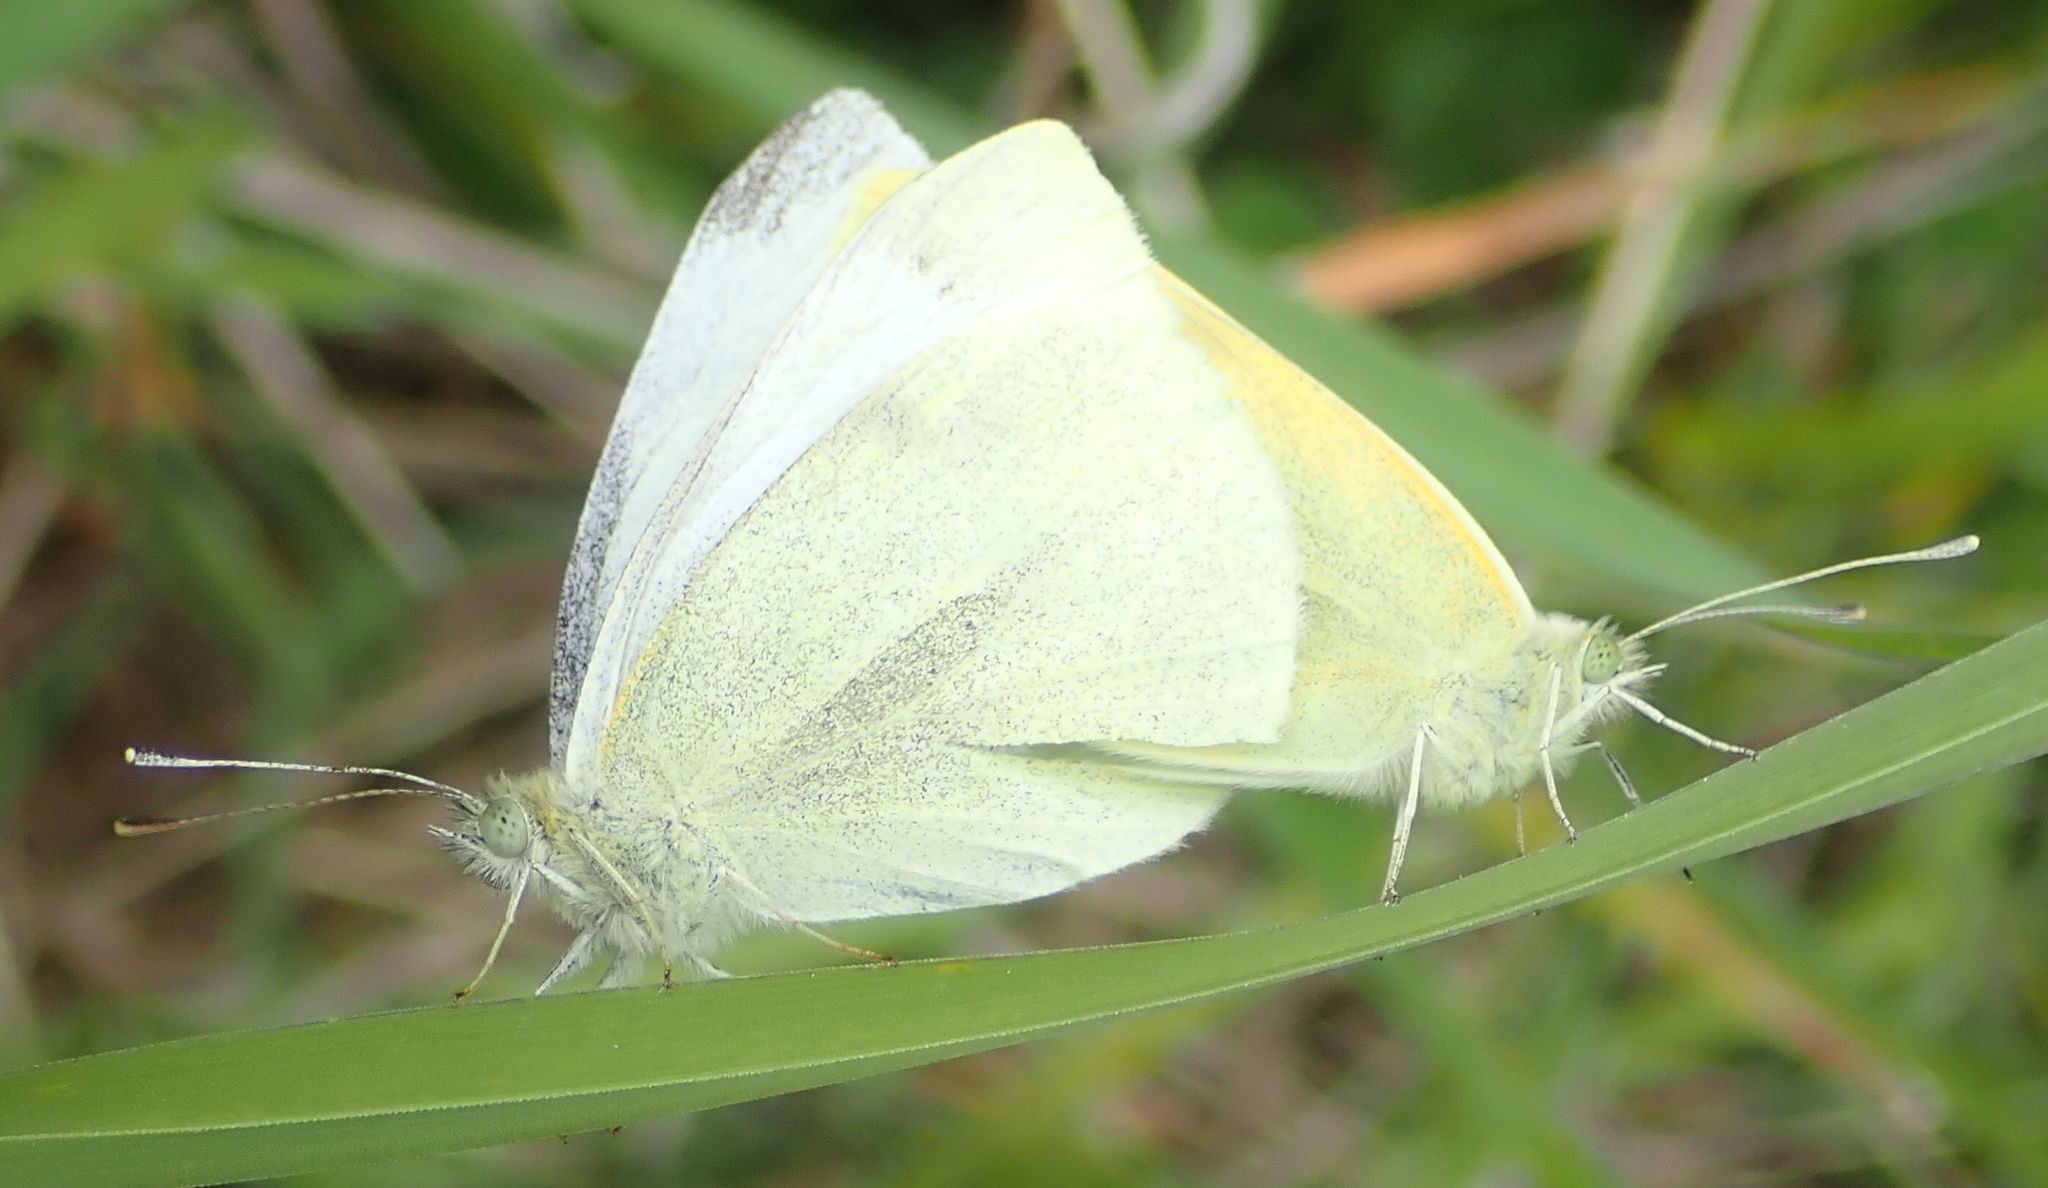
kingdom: Animalia
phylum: Arthropoda
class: Insecta
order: Lepidoptera
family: Pieridae
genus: Pieris
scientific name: Pieris rapae
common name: Small white
